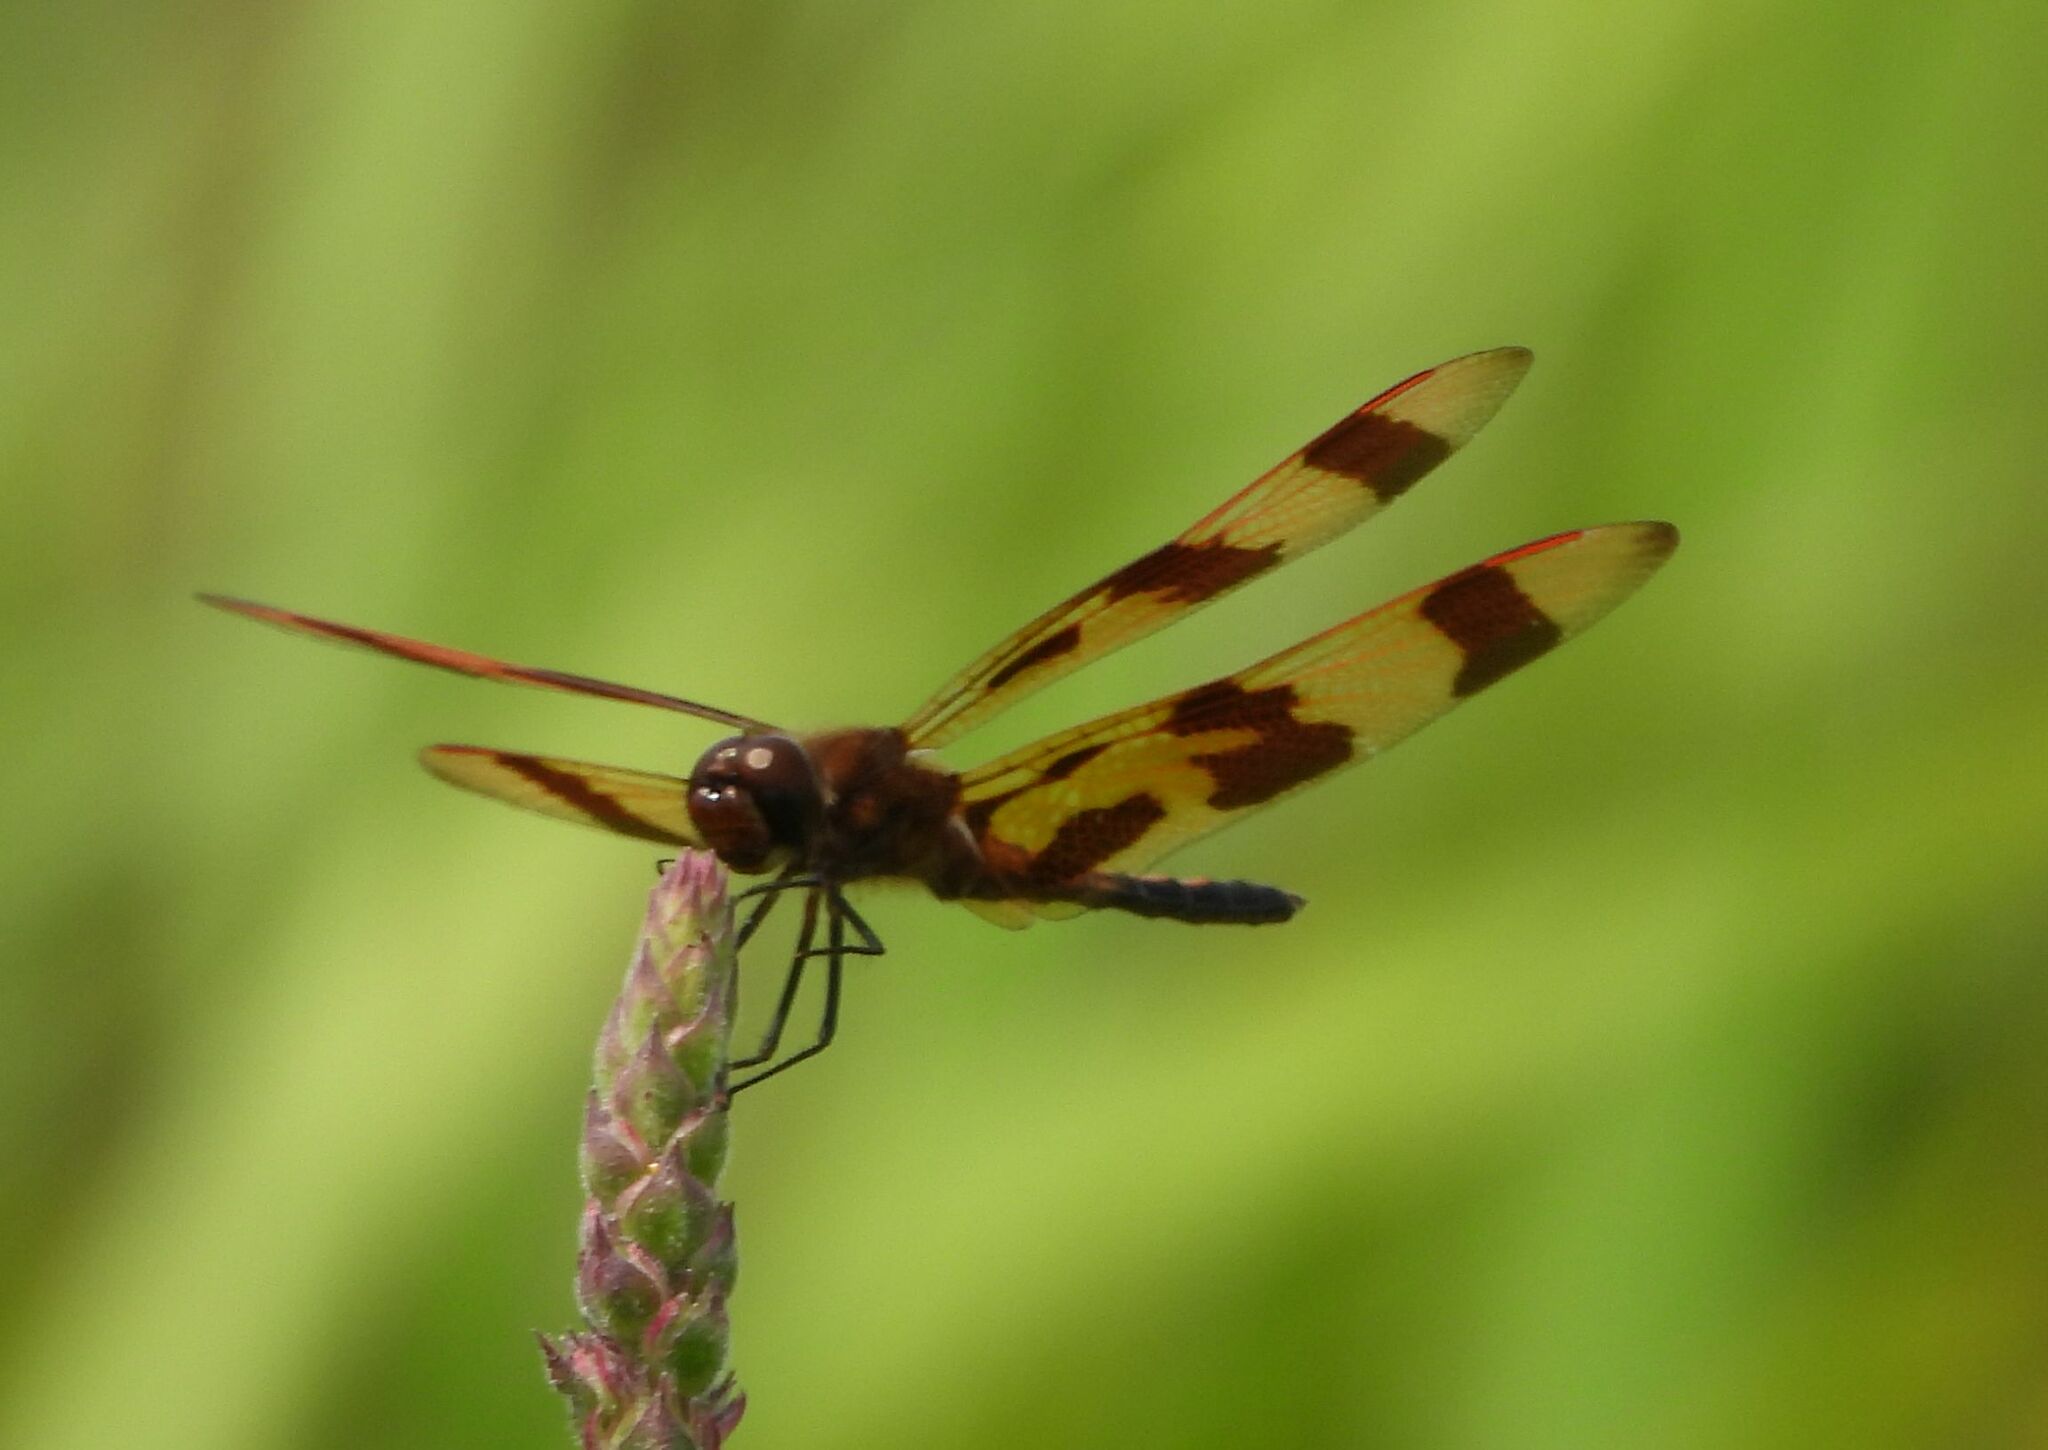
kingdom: Animalia
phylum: Arthropoda
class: Insecta
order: Odonata
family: Libellulidae
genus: Celithemis
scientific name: Celithemis eponina
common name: Halloween pennant
